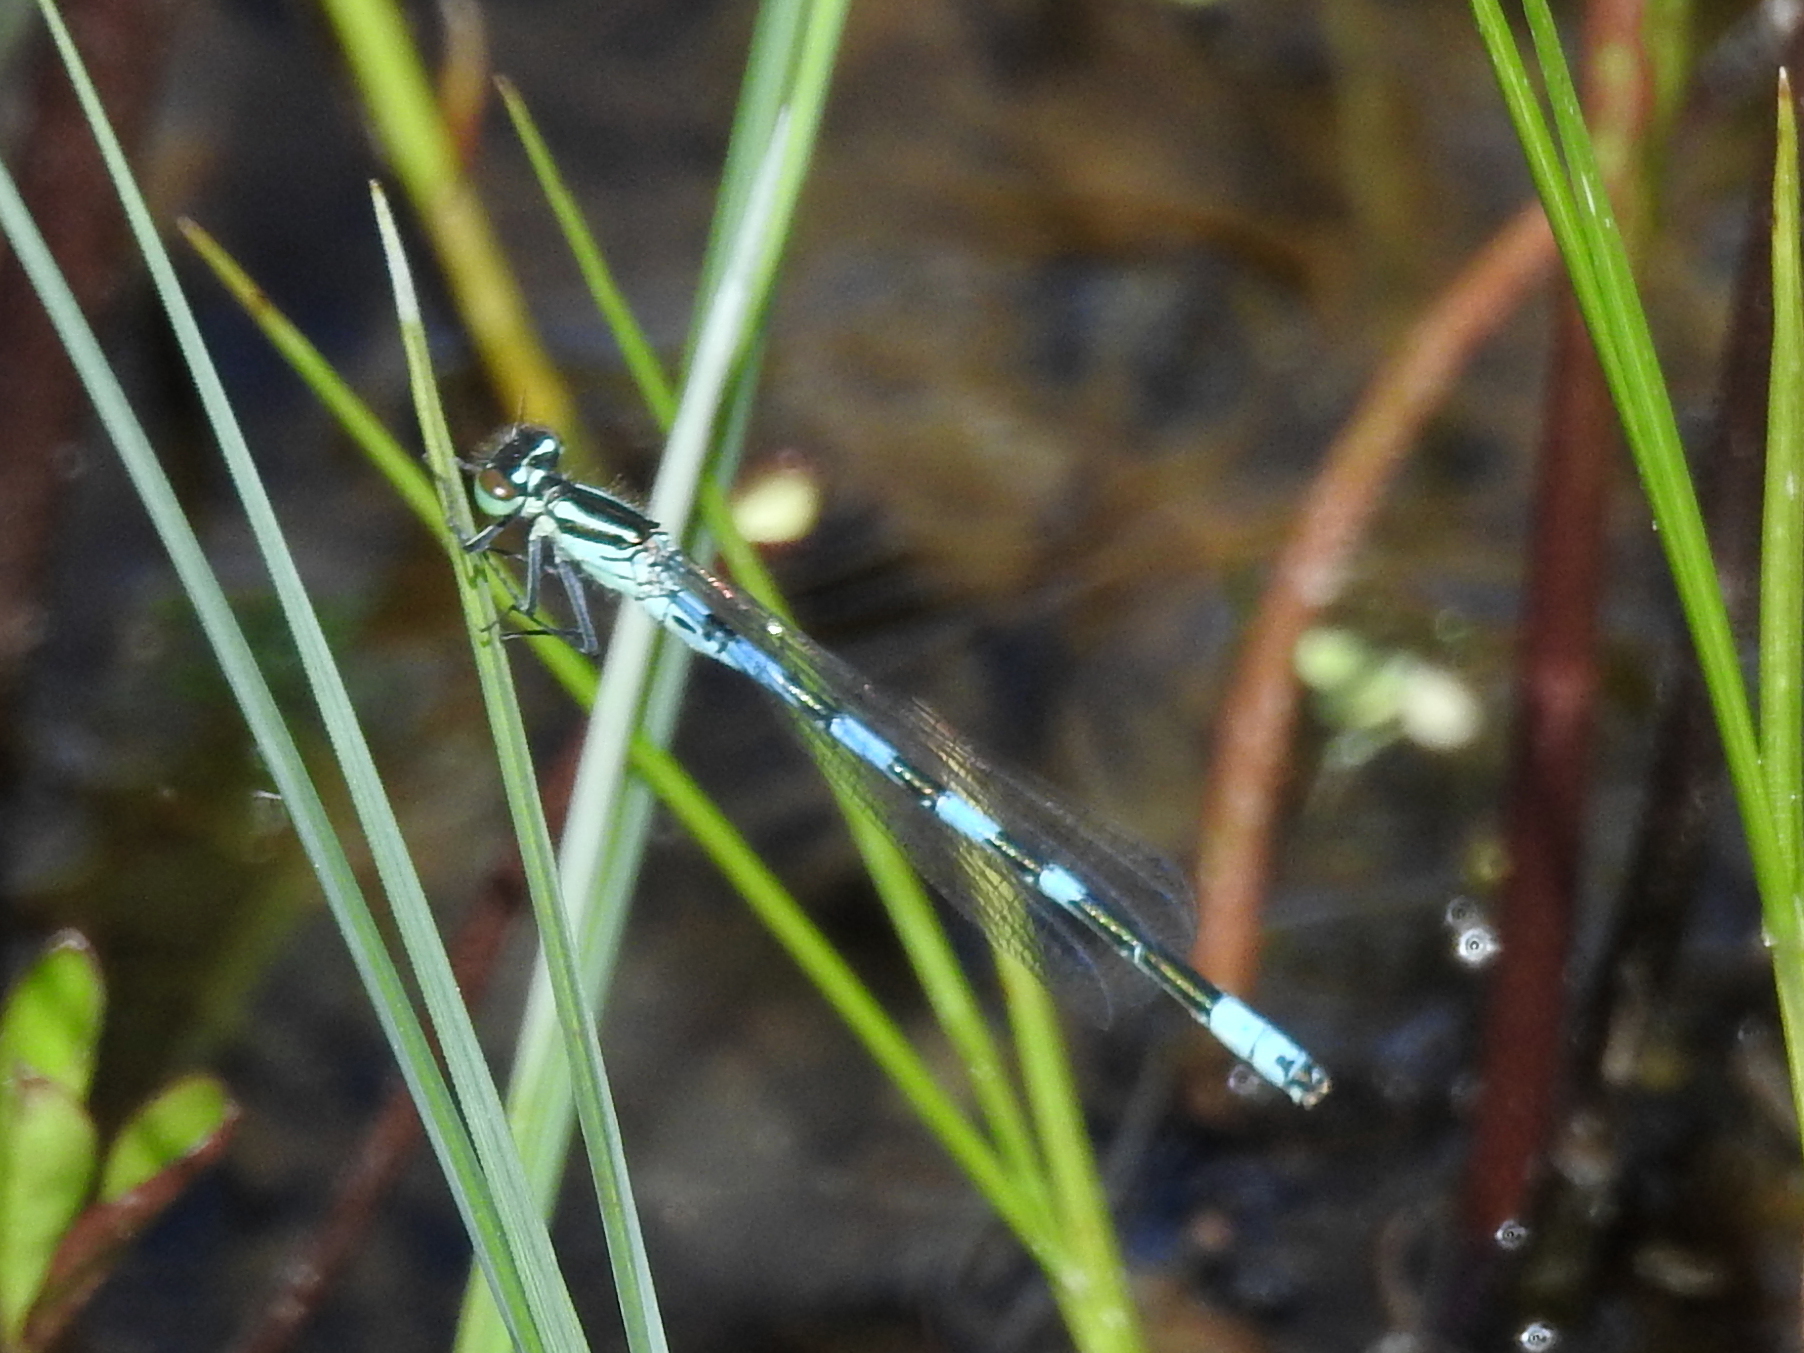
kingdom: Animalia
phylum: Arthropoda
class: Insecta
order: Odonata
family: Coenagrionidae
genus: Coenagrion
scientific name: Coenagrion hastulatum
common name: Spearhead bluet
